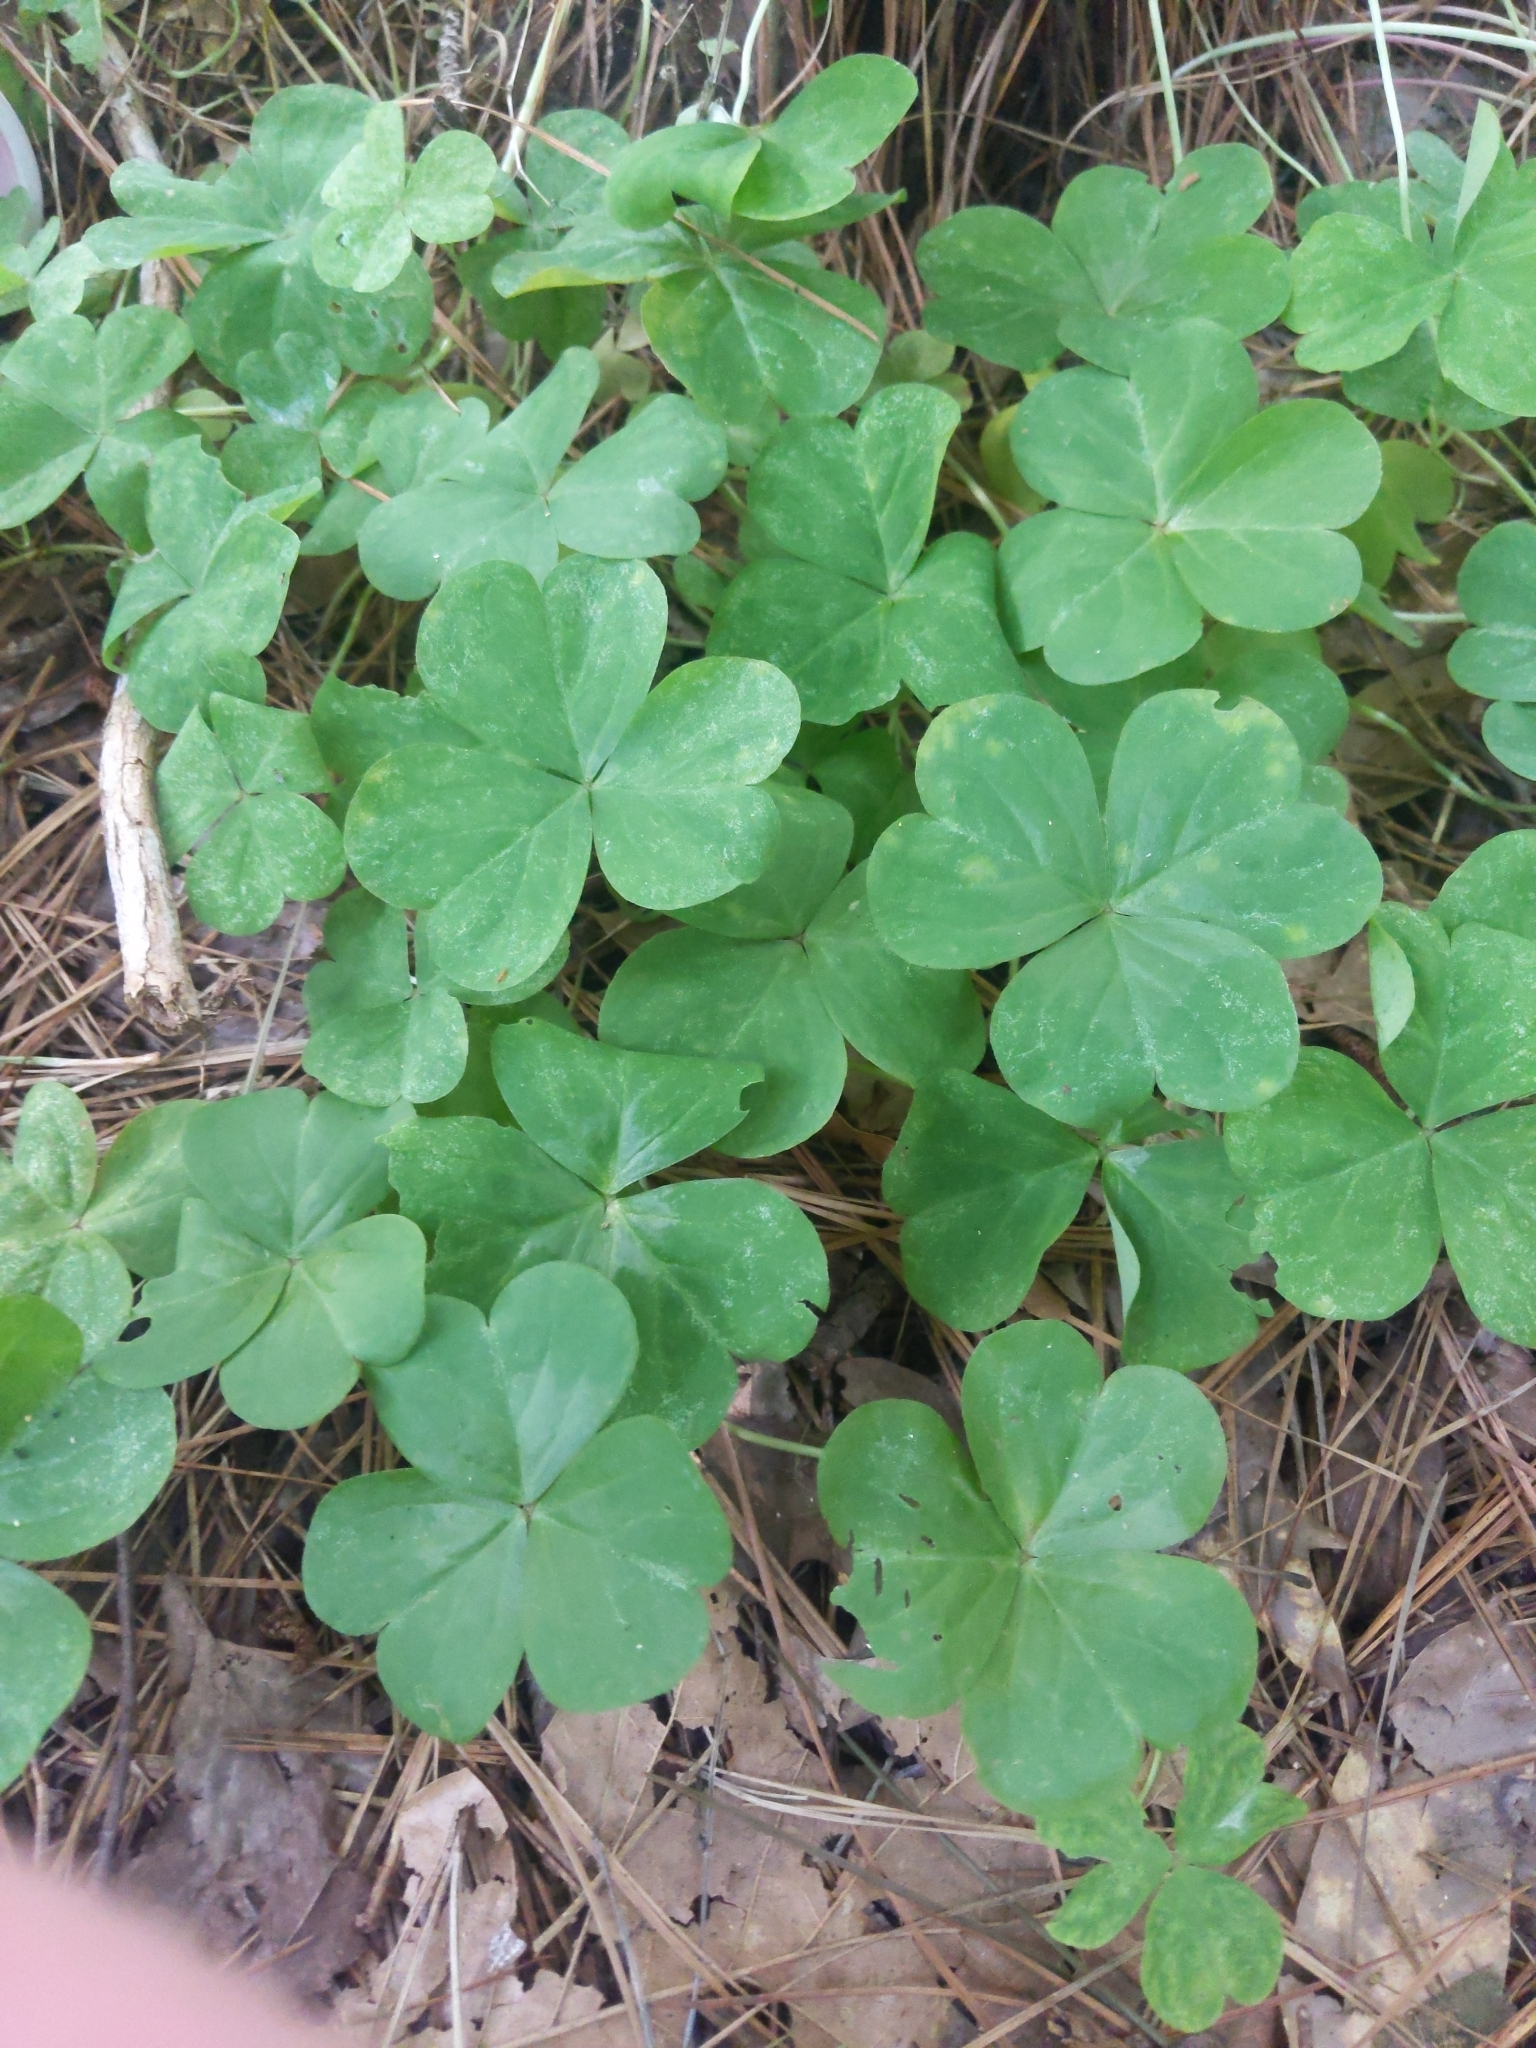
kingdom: Plantae
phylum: Tracheophyta
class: Magnoliopsida
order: Oxalidales
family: Oxalidaceae
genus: Oxalis
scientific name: Oxalis debilis
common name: Large-flowered pink-sorrel
